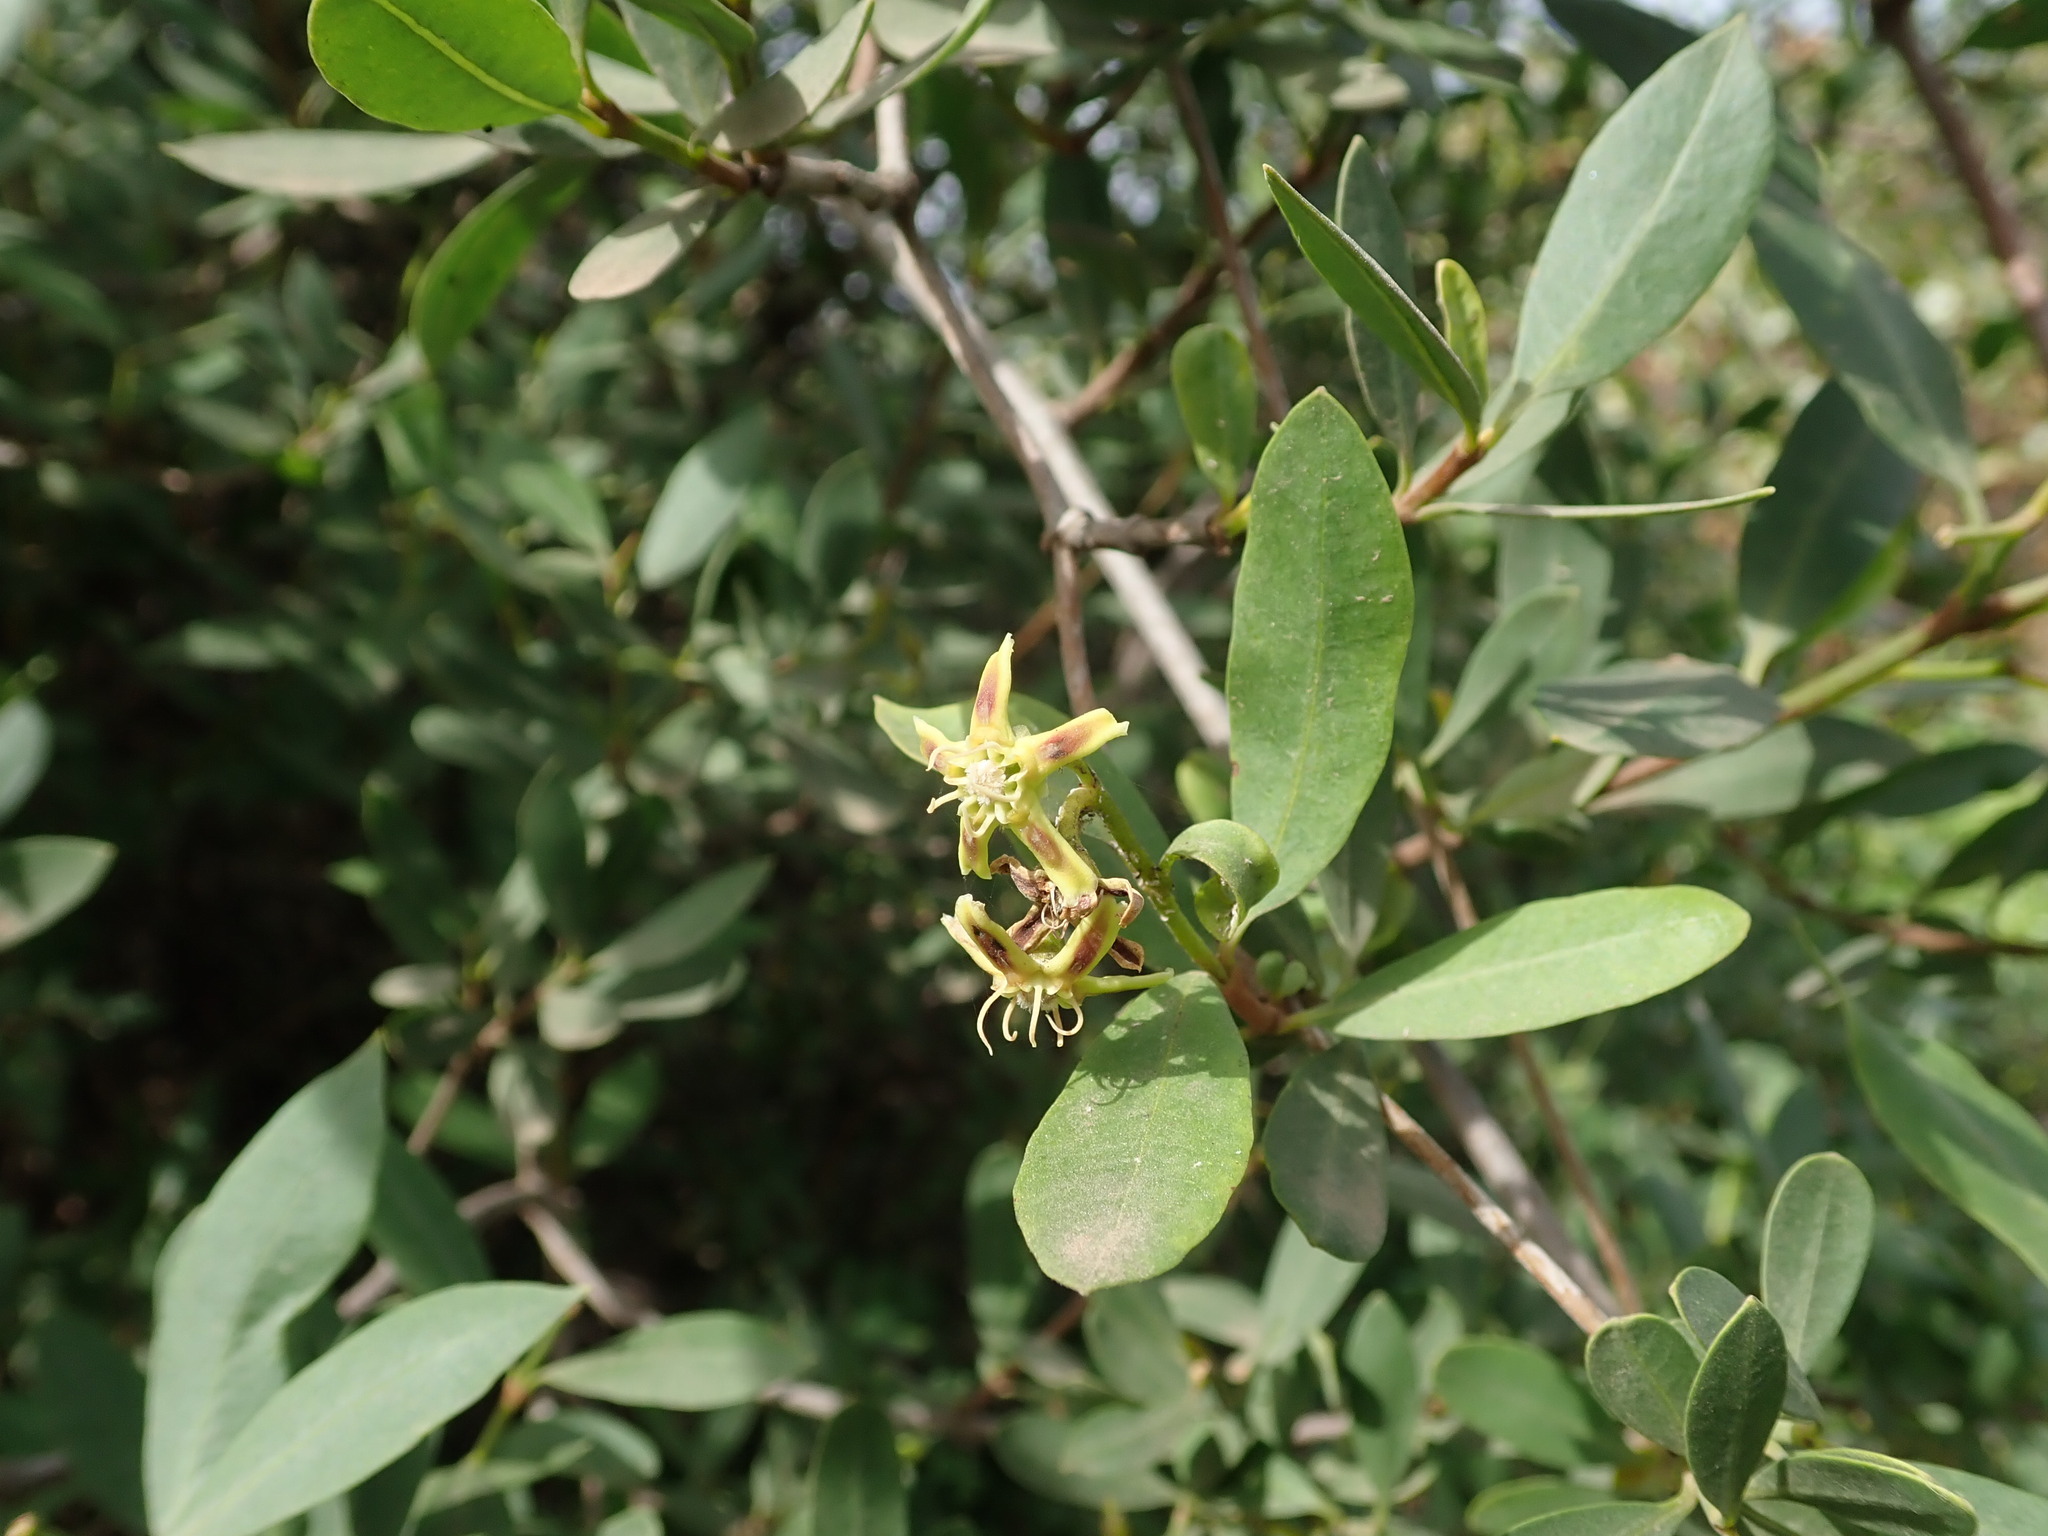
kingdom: Plantae
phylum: Tracheophyta
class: Magnoliopsida
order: Gentianales
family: Apocynaceae
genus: Periploca
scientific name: Periploca laevigata
